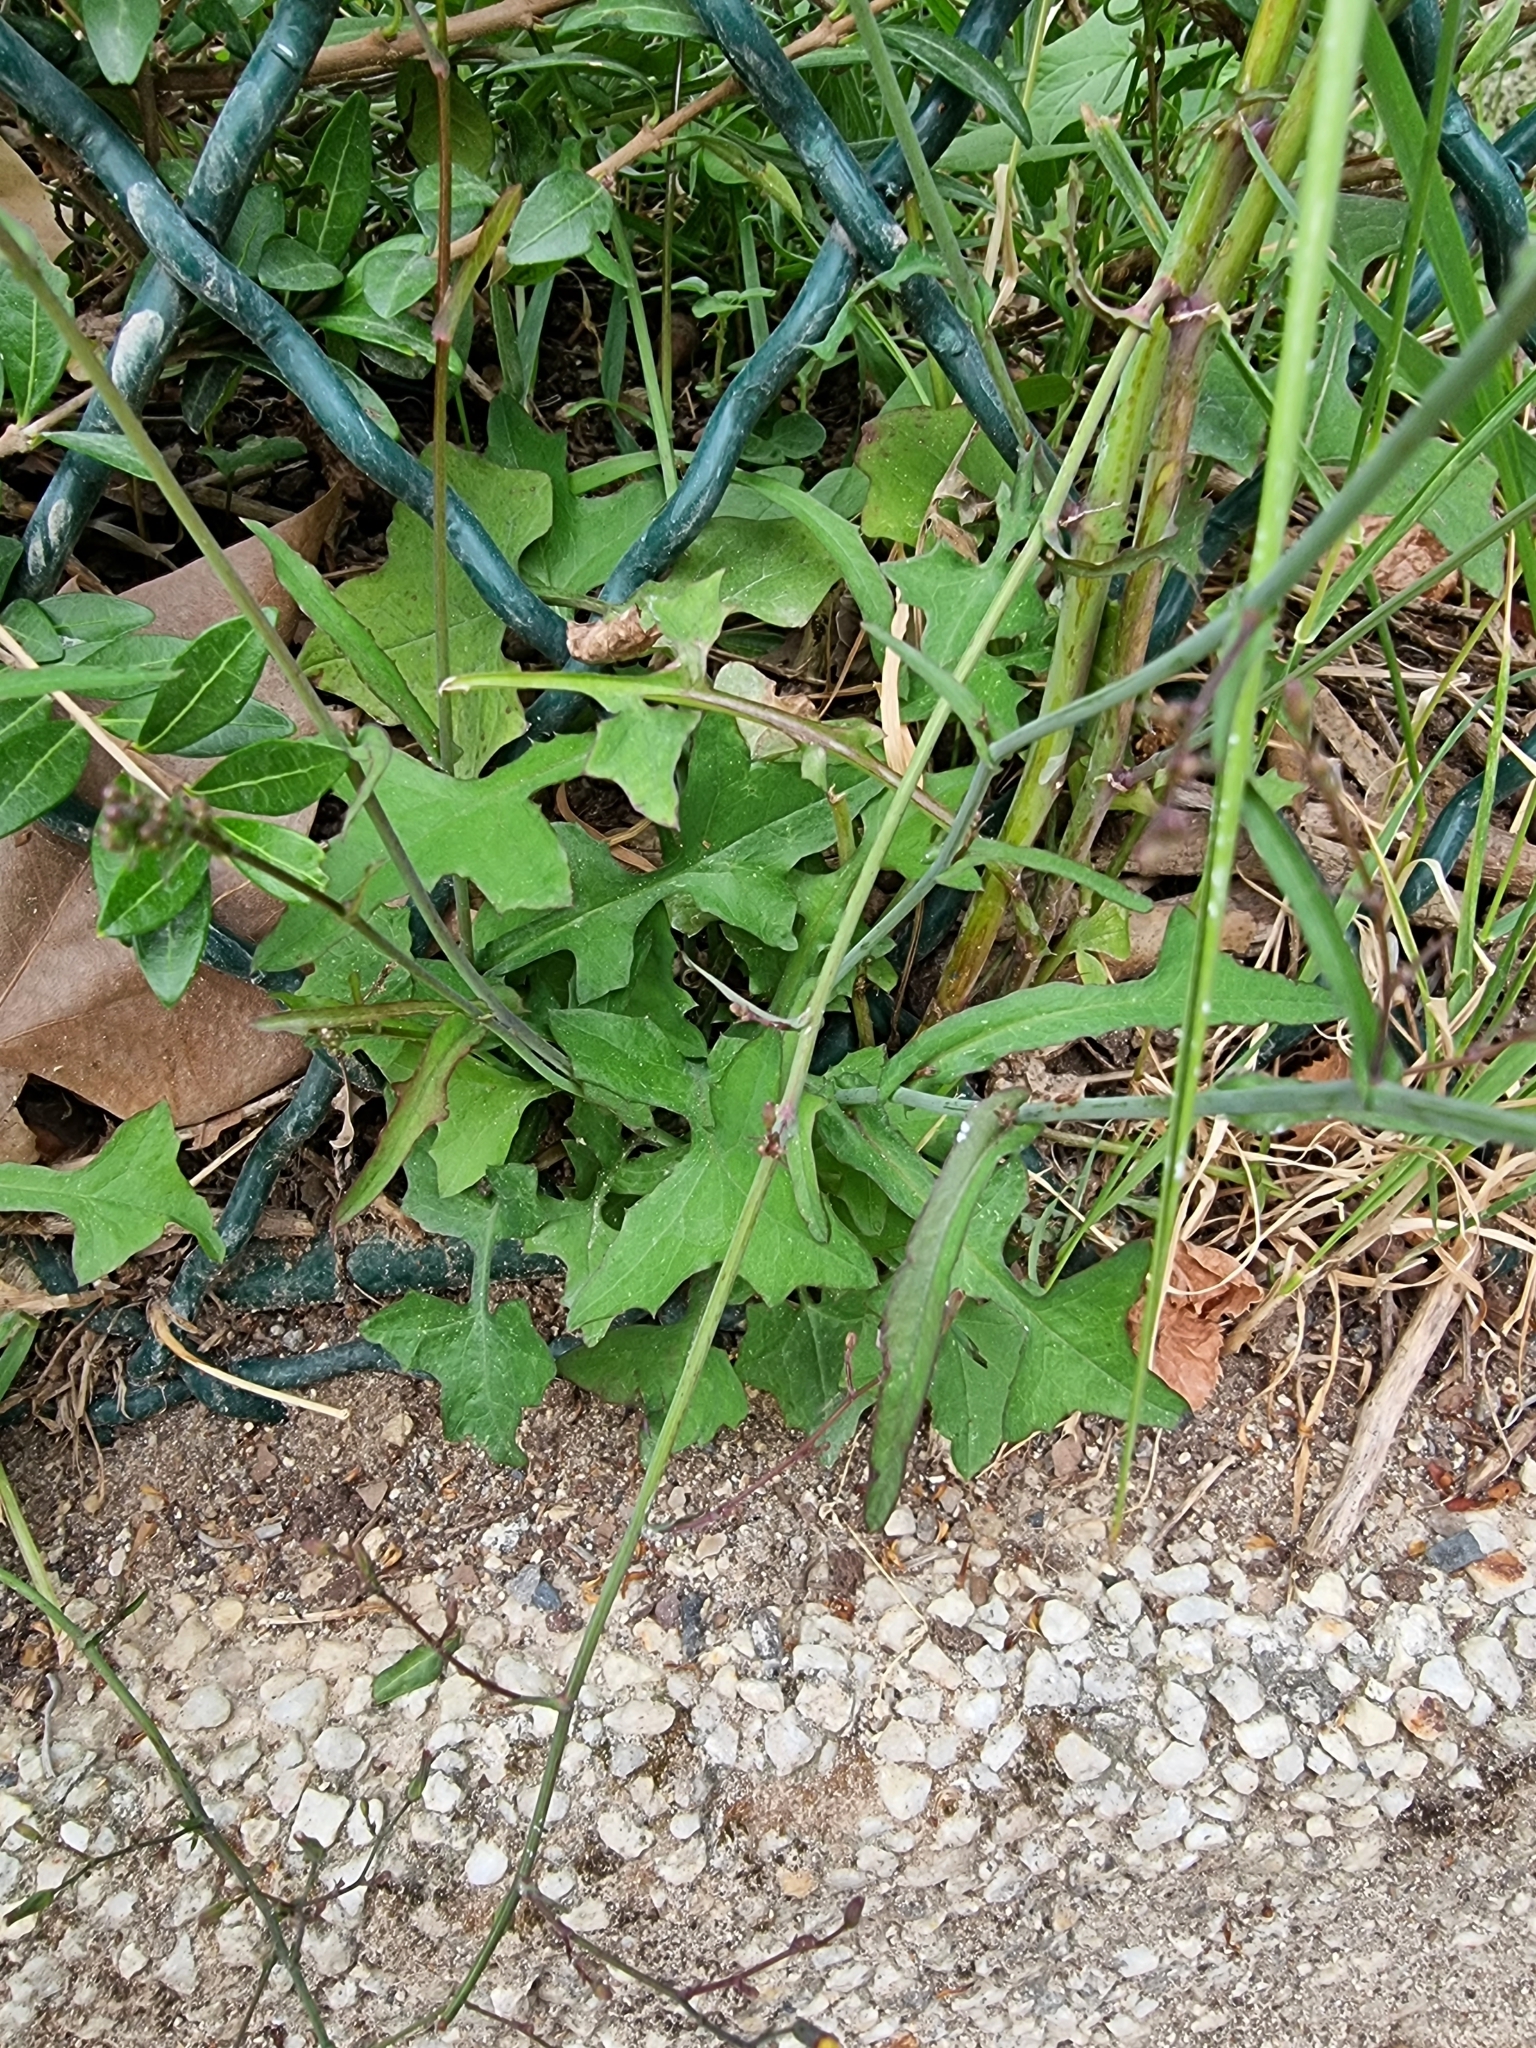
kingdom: Plantae
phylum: Tracheophyta
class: Magnoliopsida
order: Asterales
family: Asteraceae
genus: Mycelis
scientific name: Mycelis muralis
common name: Wall lettuce
